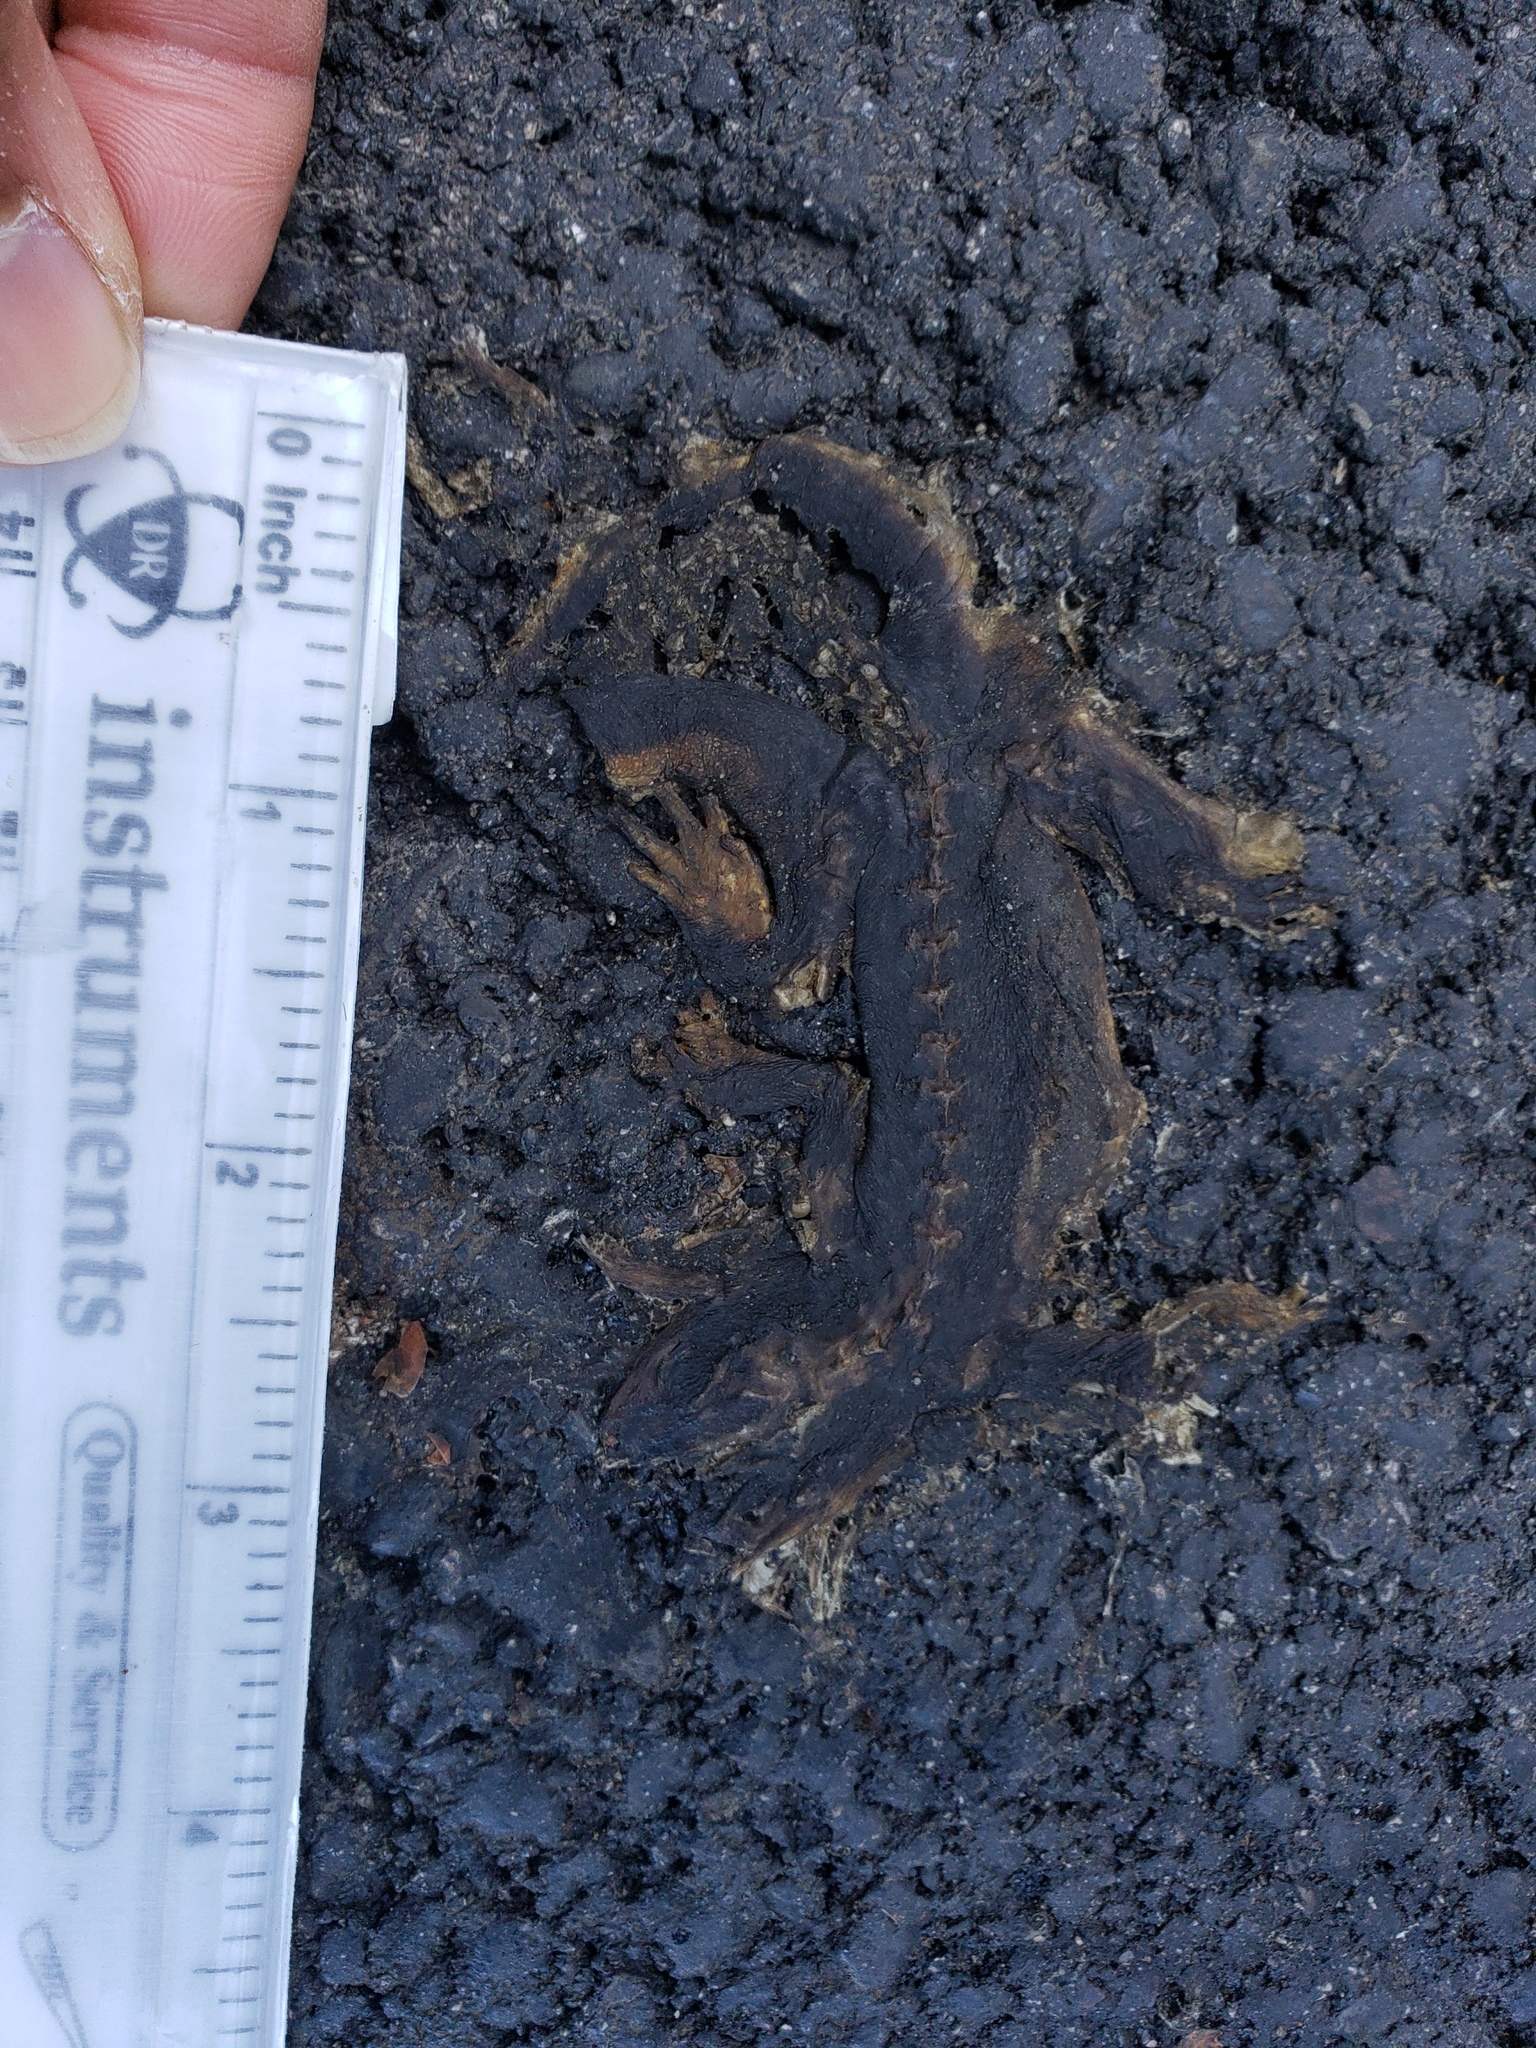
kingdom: Animalia
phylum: Chordata
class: Amphibia
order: Caudata
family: Salamandridae
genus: Taricha
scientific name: Taricha
